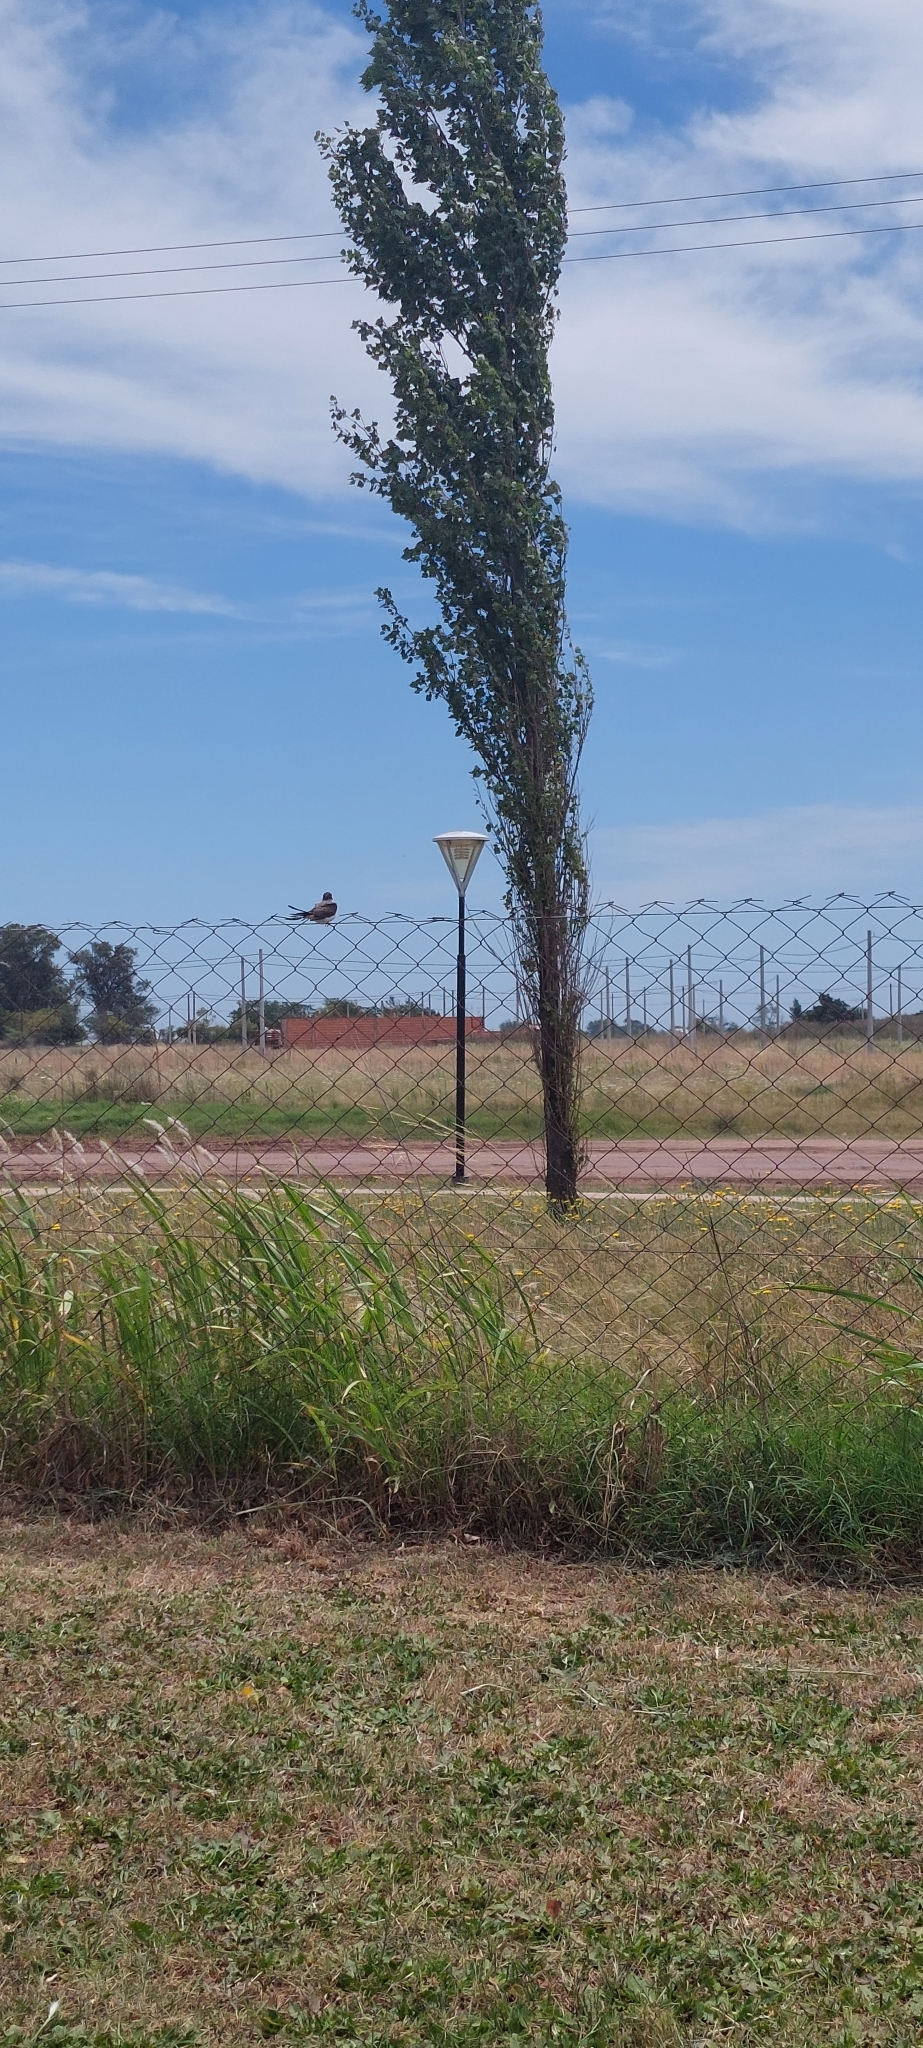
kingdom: Animalia
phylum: Chordata
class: Aves
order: Passeriformes
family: Tyrannidae
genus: Tyrannus
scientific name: Tyrannus savana
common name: Fork-tailed flycatcher
